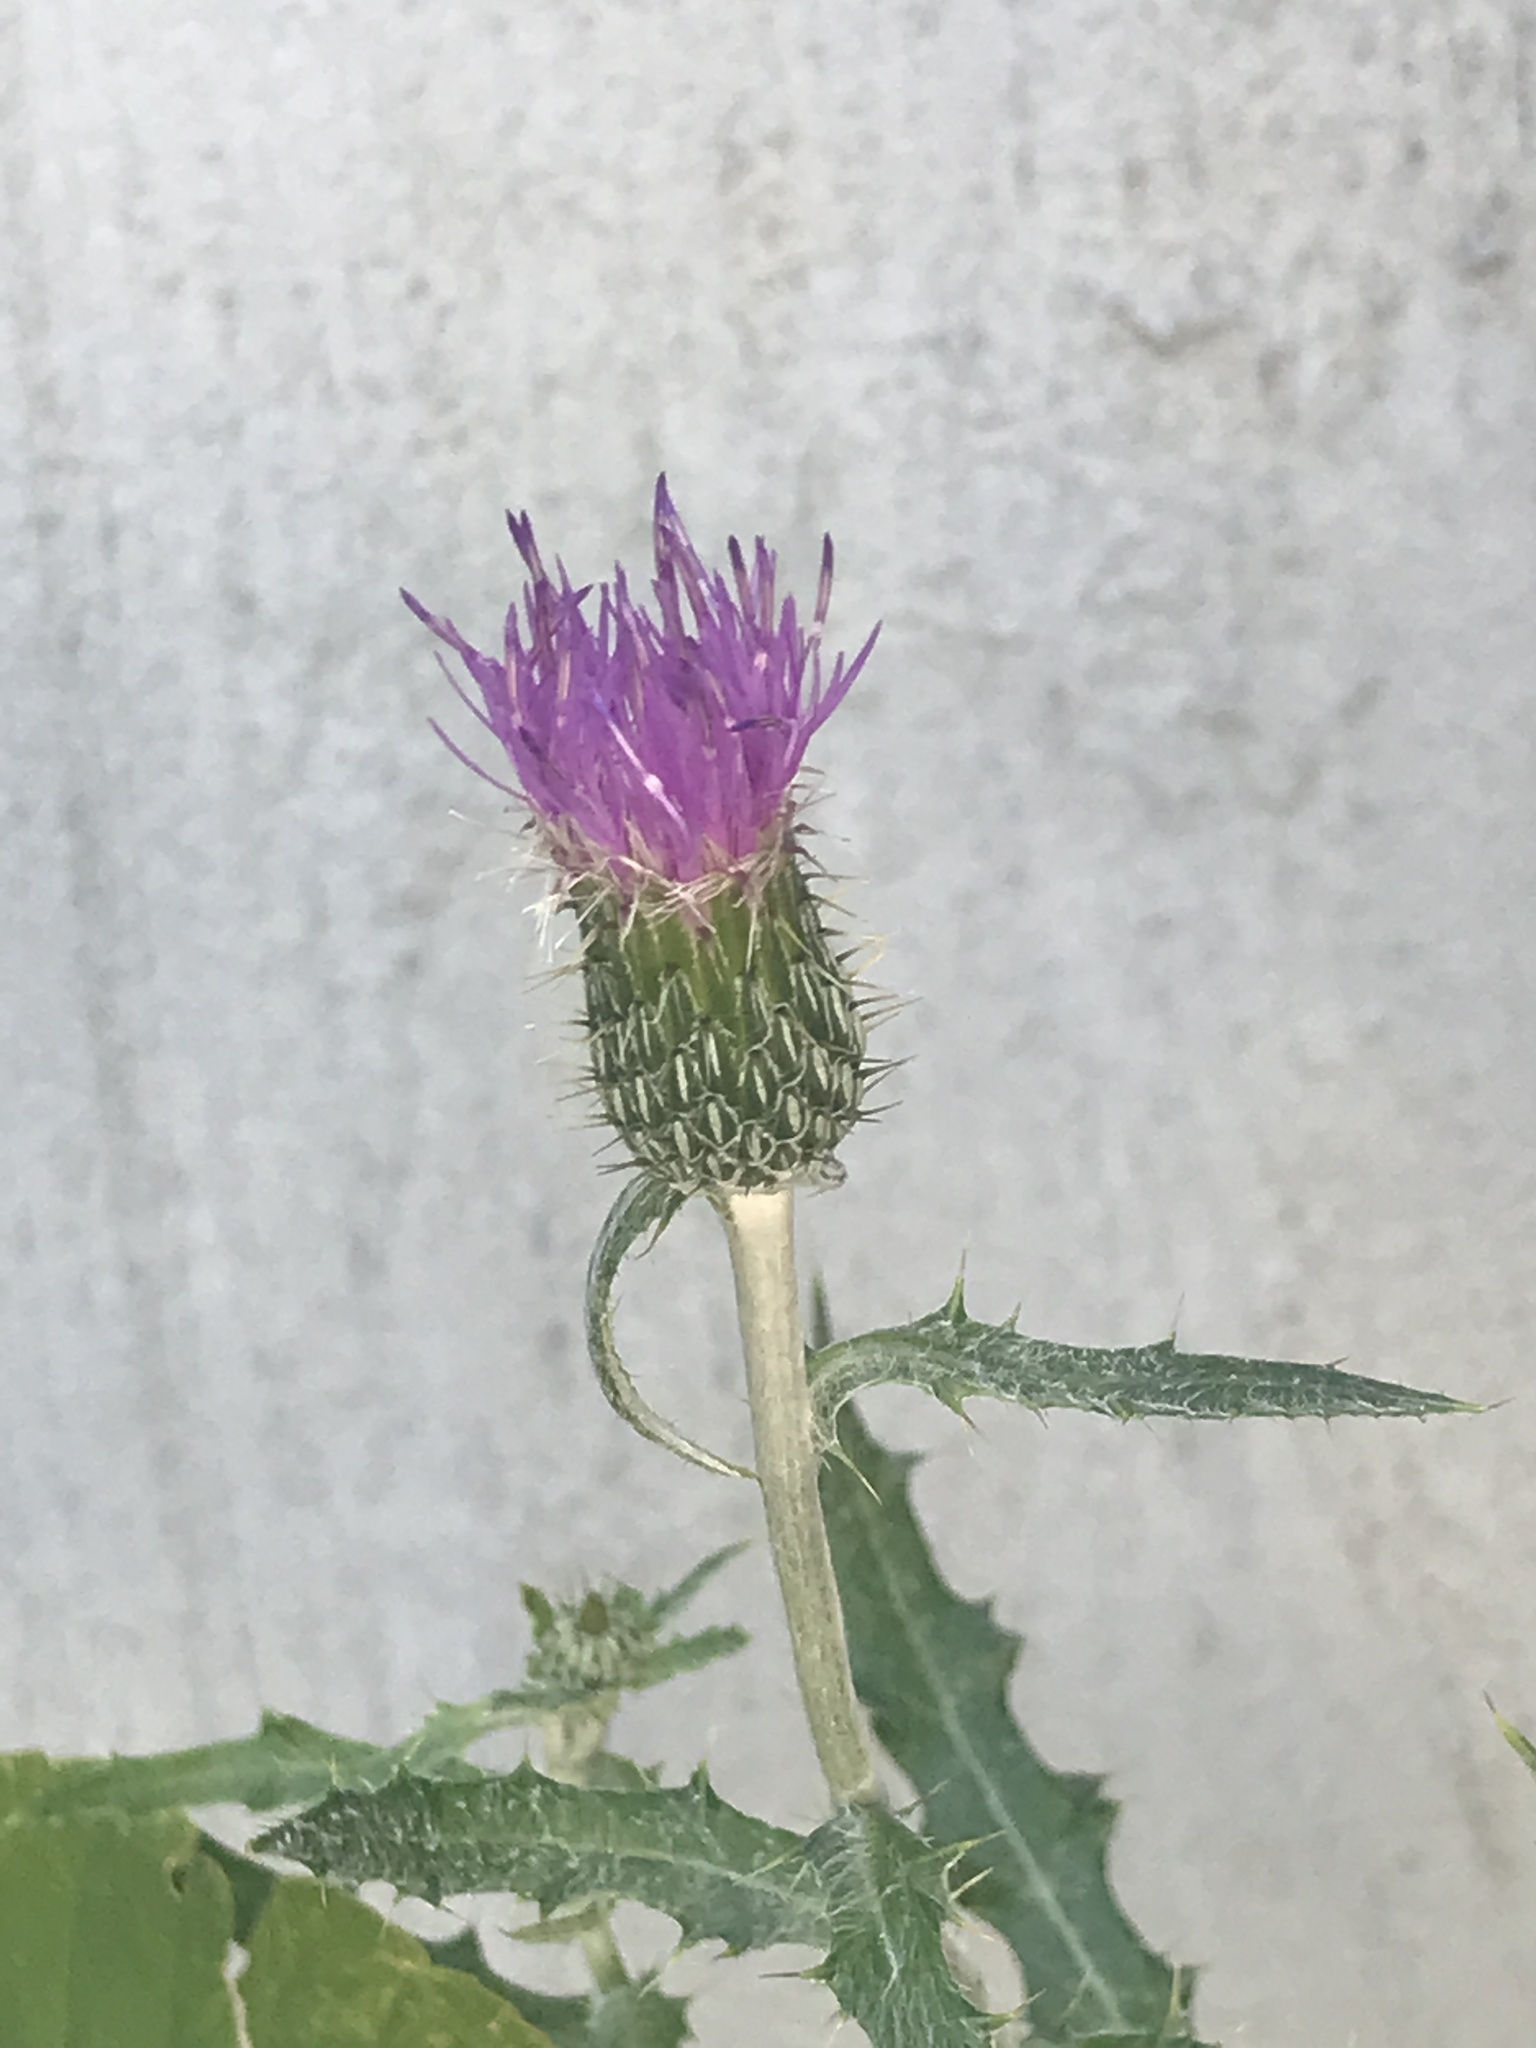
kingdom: Plantae
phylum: Tracheophyta
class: Magnoliopsida
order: Asterales
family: Asteraceae
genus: Cirsium
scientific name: Cirsium altissimum
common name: Roadside thistle
